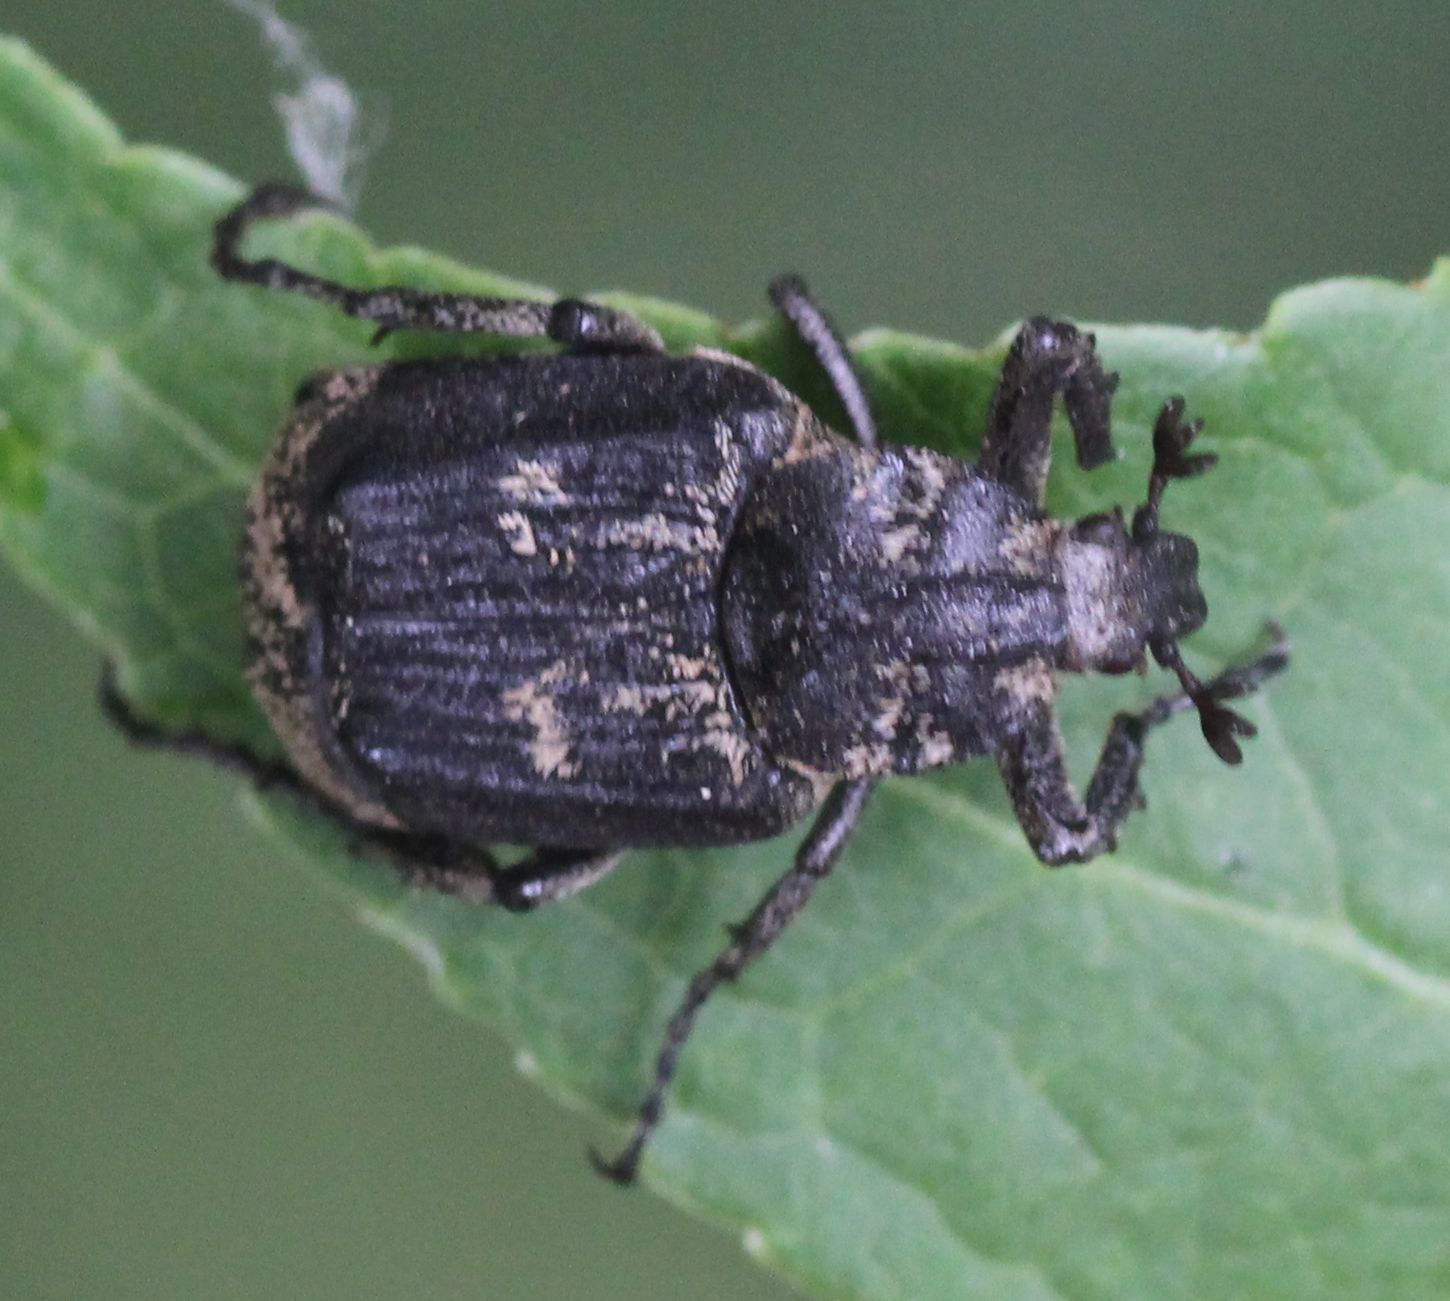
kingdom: Animalia
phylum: Arthropoda
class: Insecta
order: Coleoptera
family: Scarabaeidae
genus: Valgus
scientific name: Valgus hemipterus
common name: Bug flower chafer
